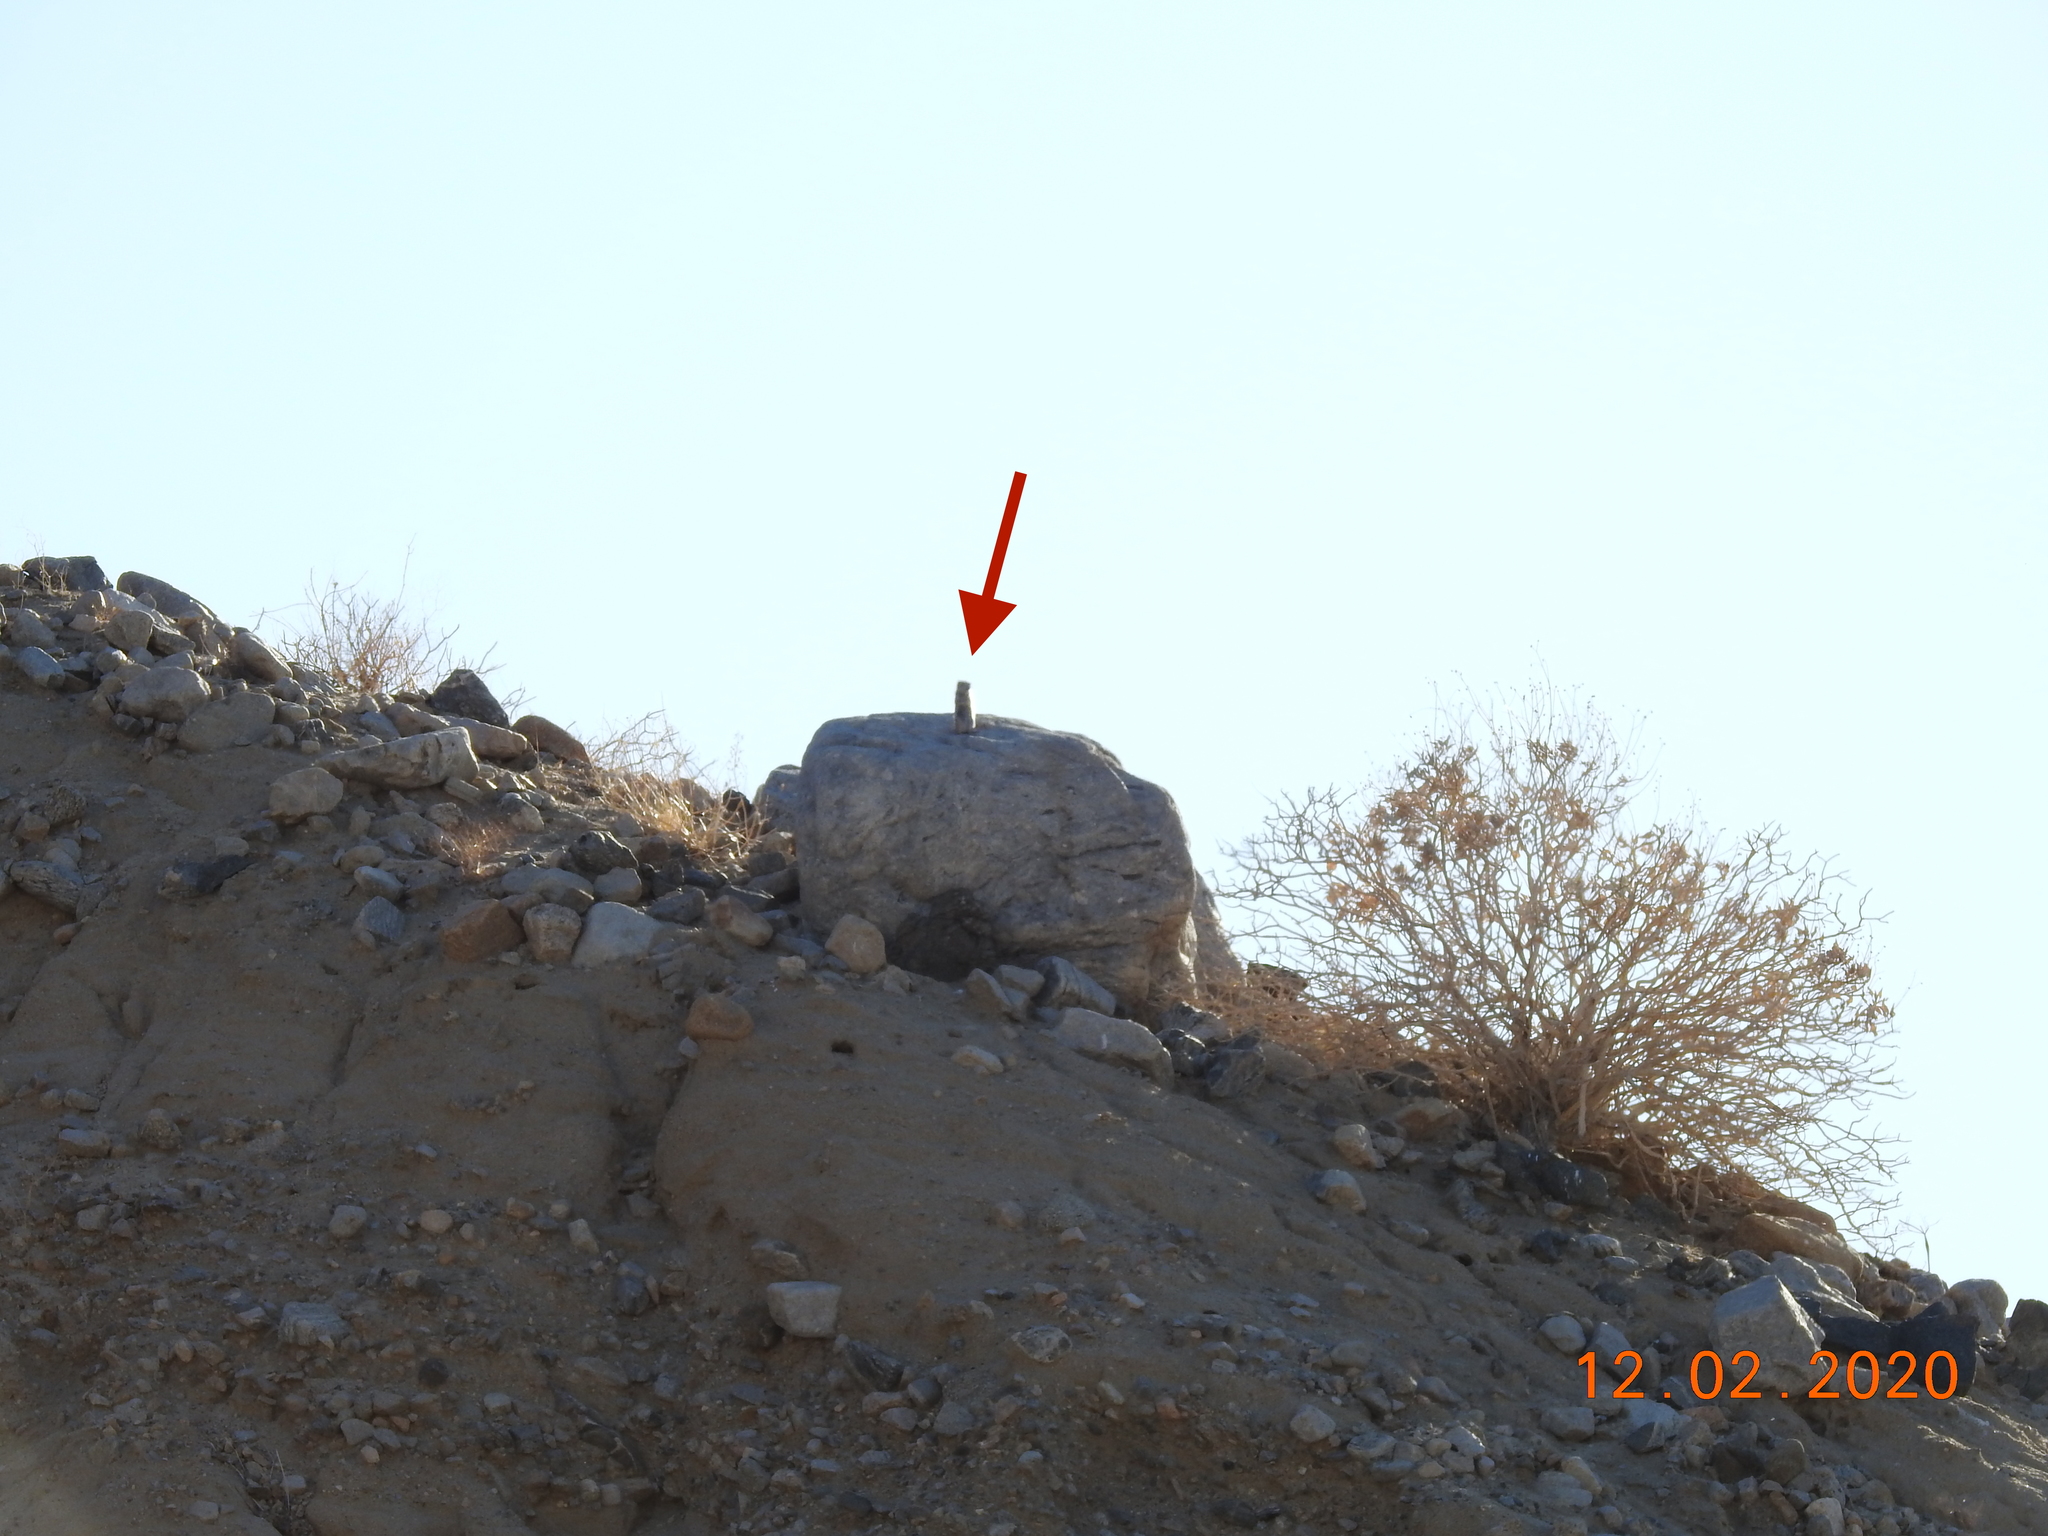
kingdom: Animalia
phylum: Chordata
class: Mammalia
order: Rodentia
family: Sciuridae
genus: Ammospermophilus
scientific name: Ammospermophilus leucurus
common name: White-tailed antelope squirrel
